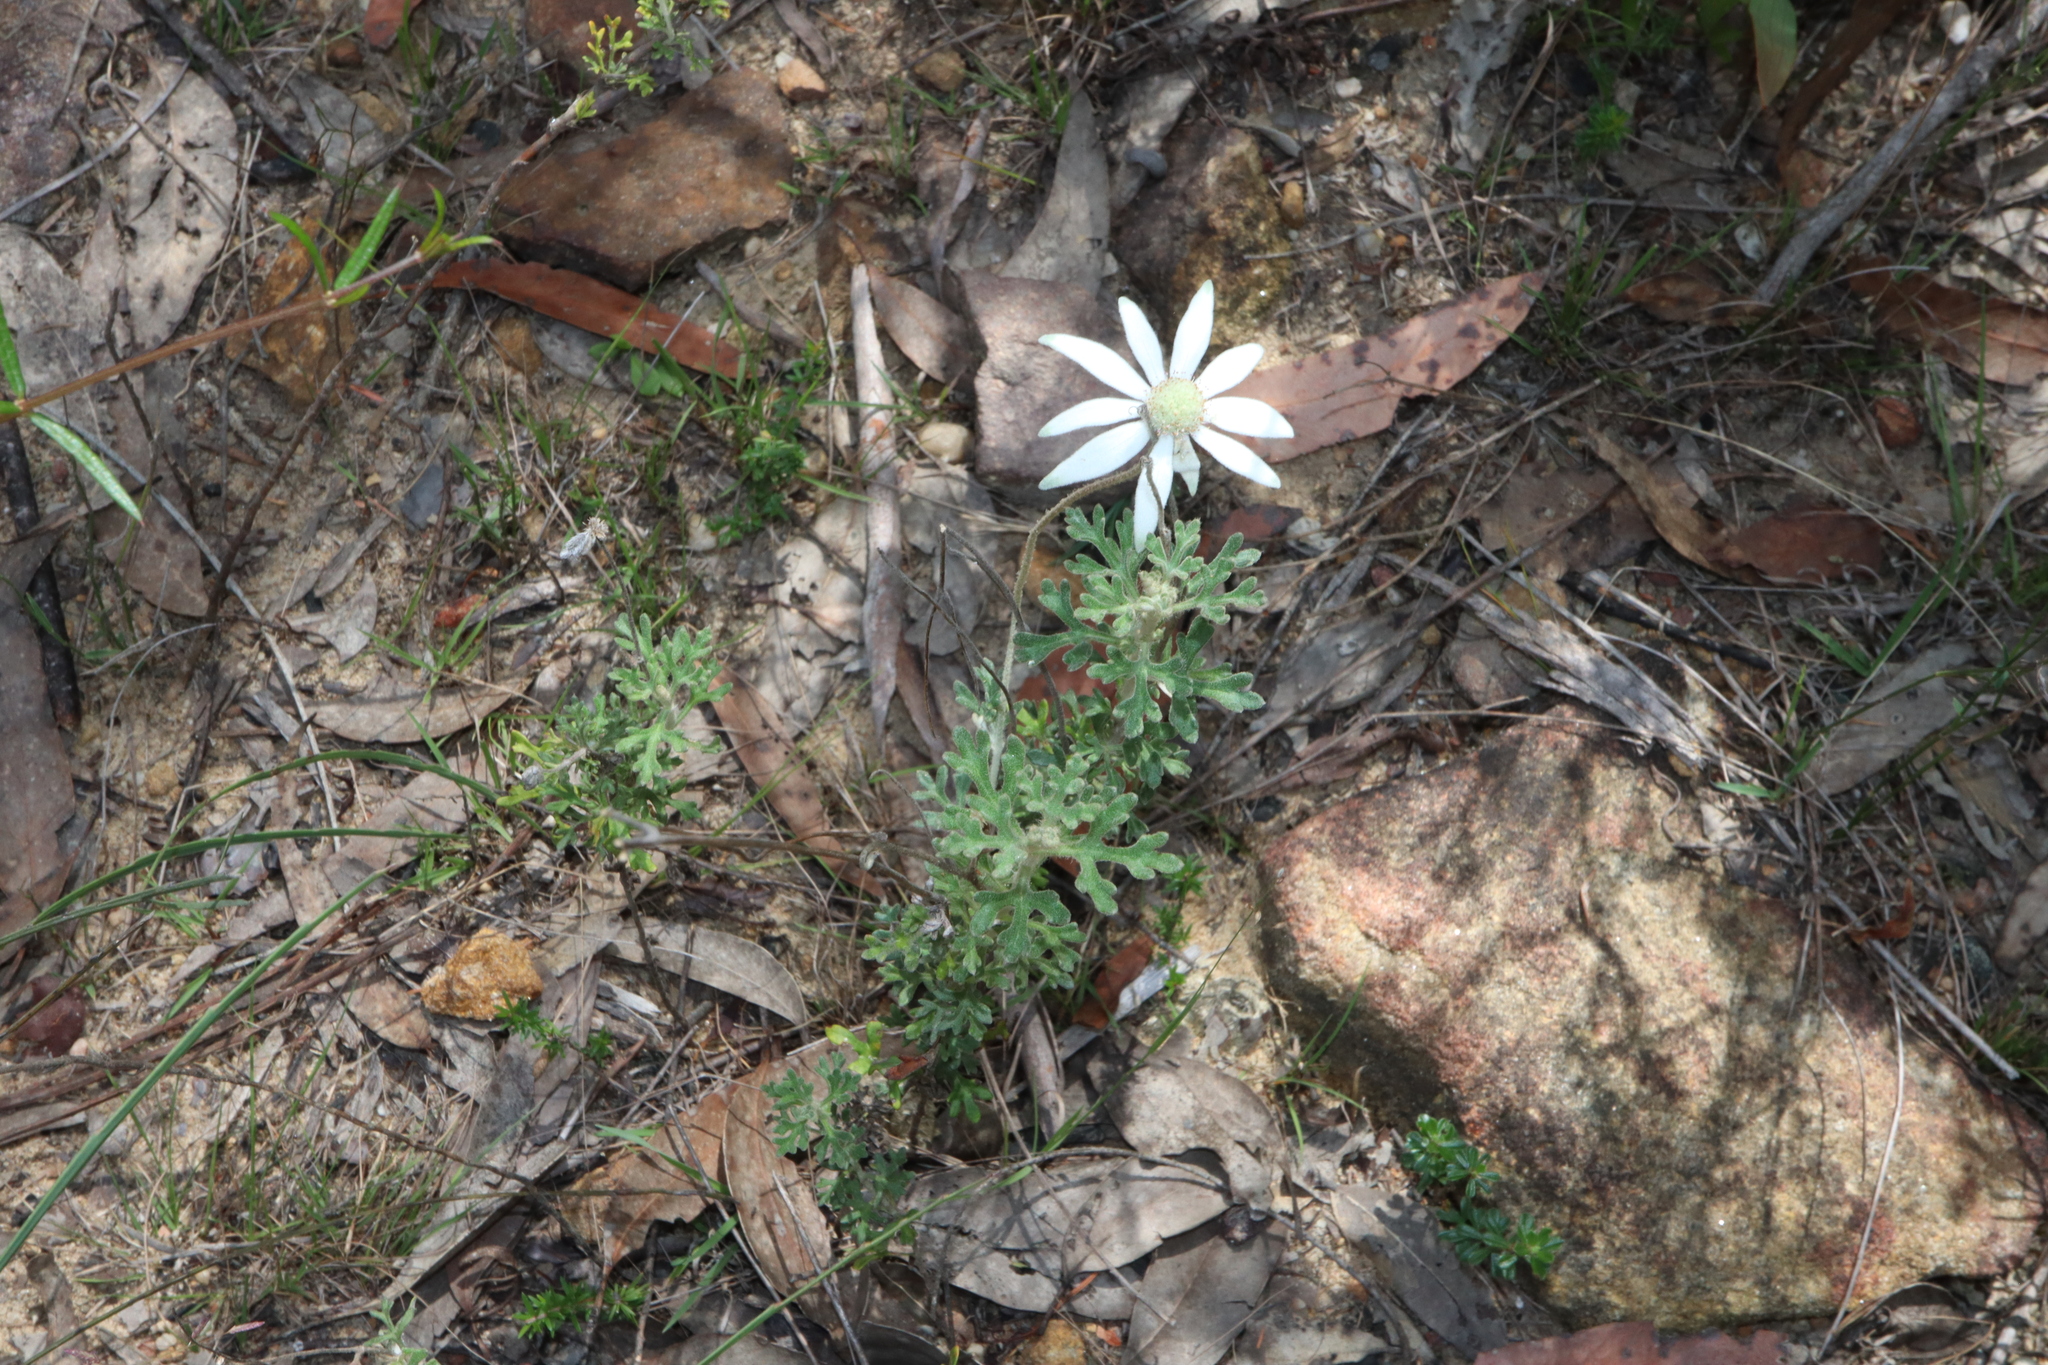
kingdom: Plantae
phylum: Tracheophyta
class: Magnoliopsida
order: Apiales
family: Apiaceae
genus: Actinotus
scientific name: Actinotus helianthi
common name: Flannel-flower
